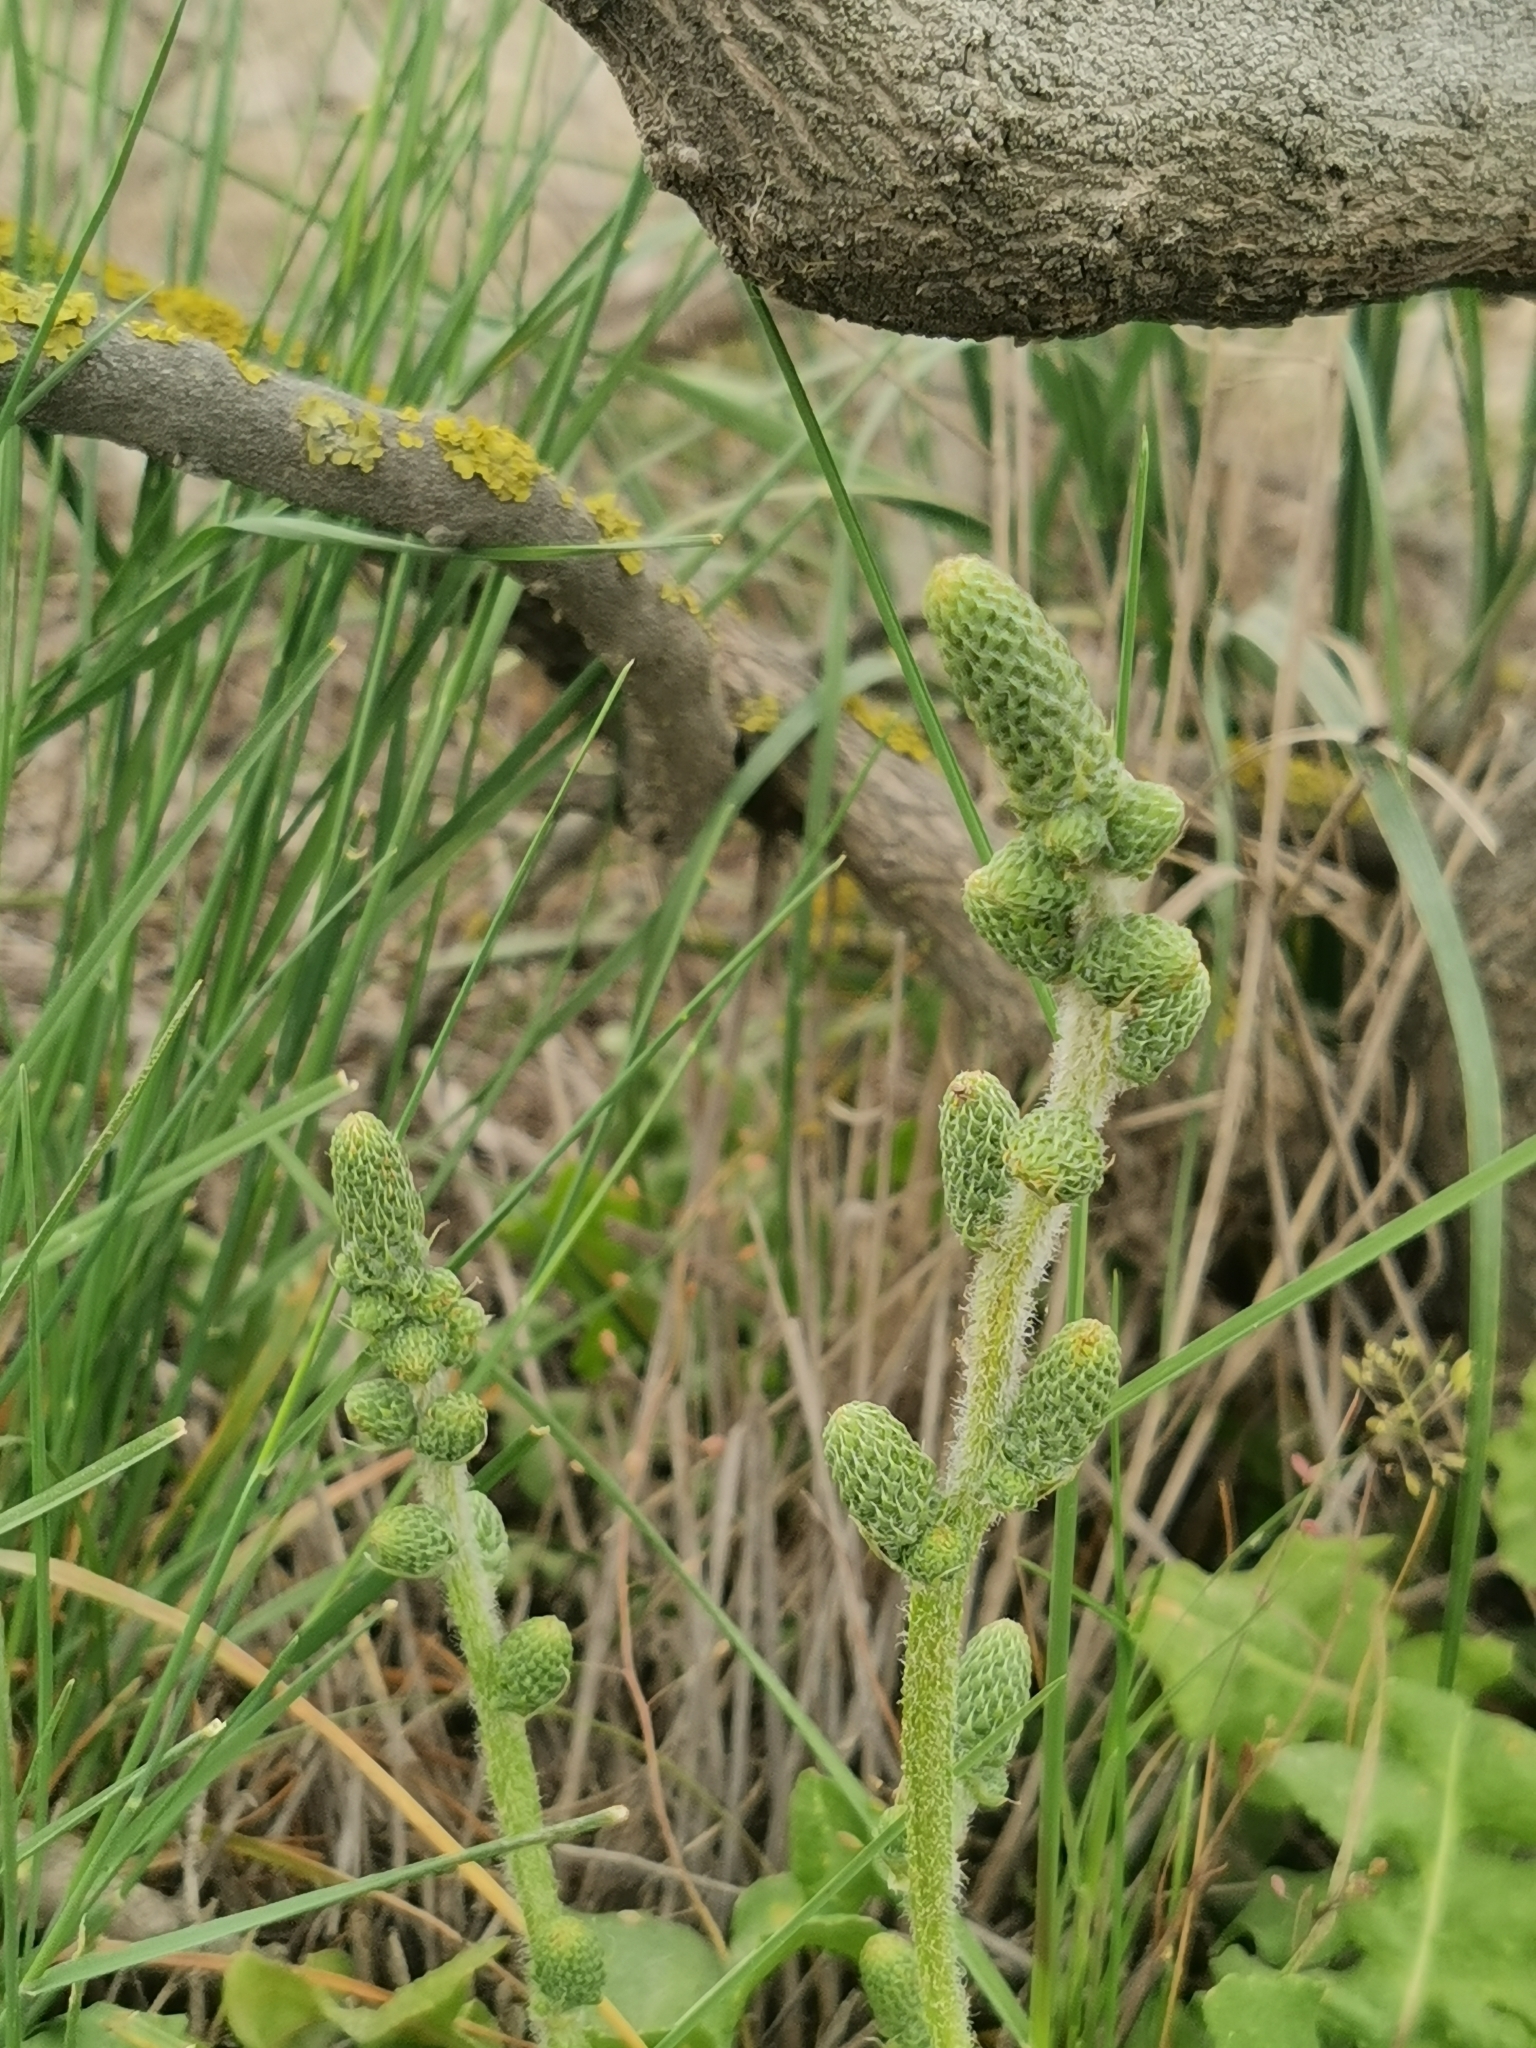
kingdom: Plantae
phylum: Tracheophyta
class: Magnoliopsida
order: Caryophyllales
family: Plumbaginaceae
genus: Psylliostachys
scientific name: Psylliostachys spicatus
